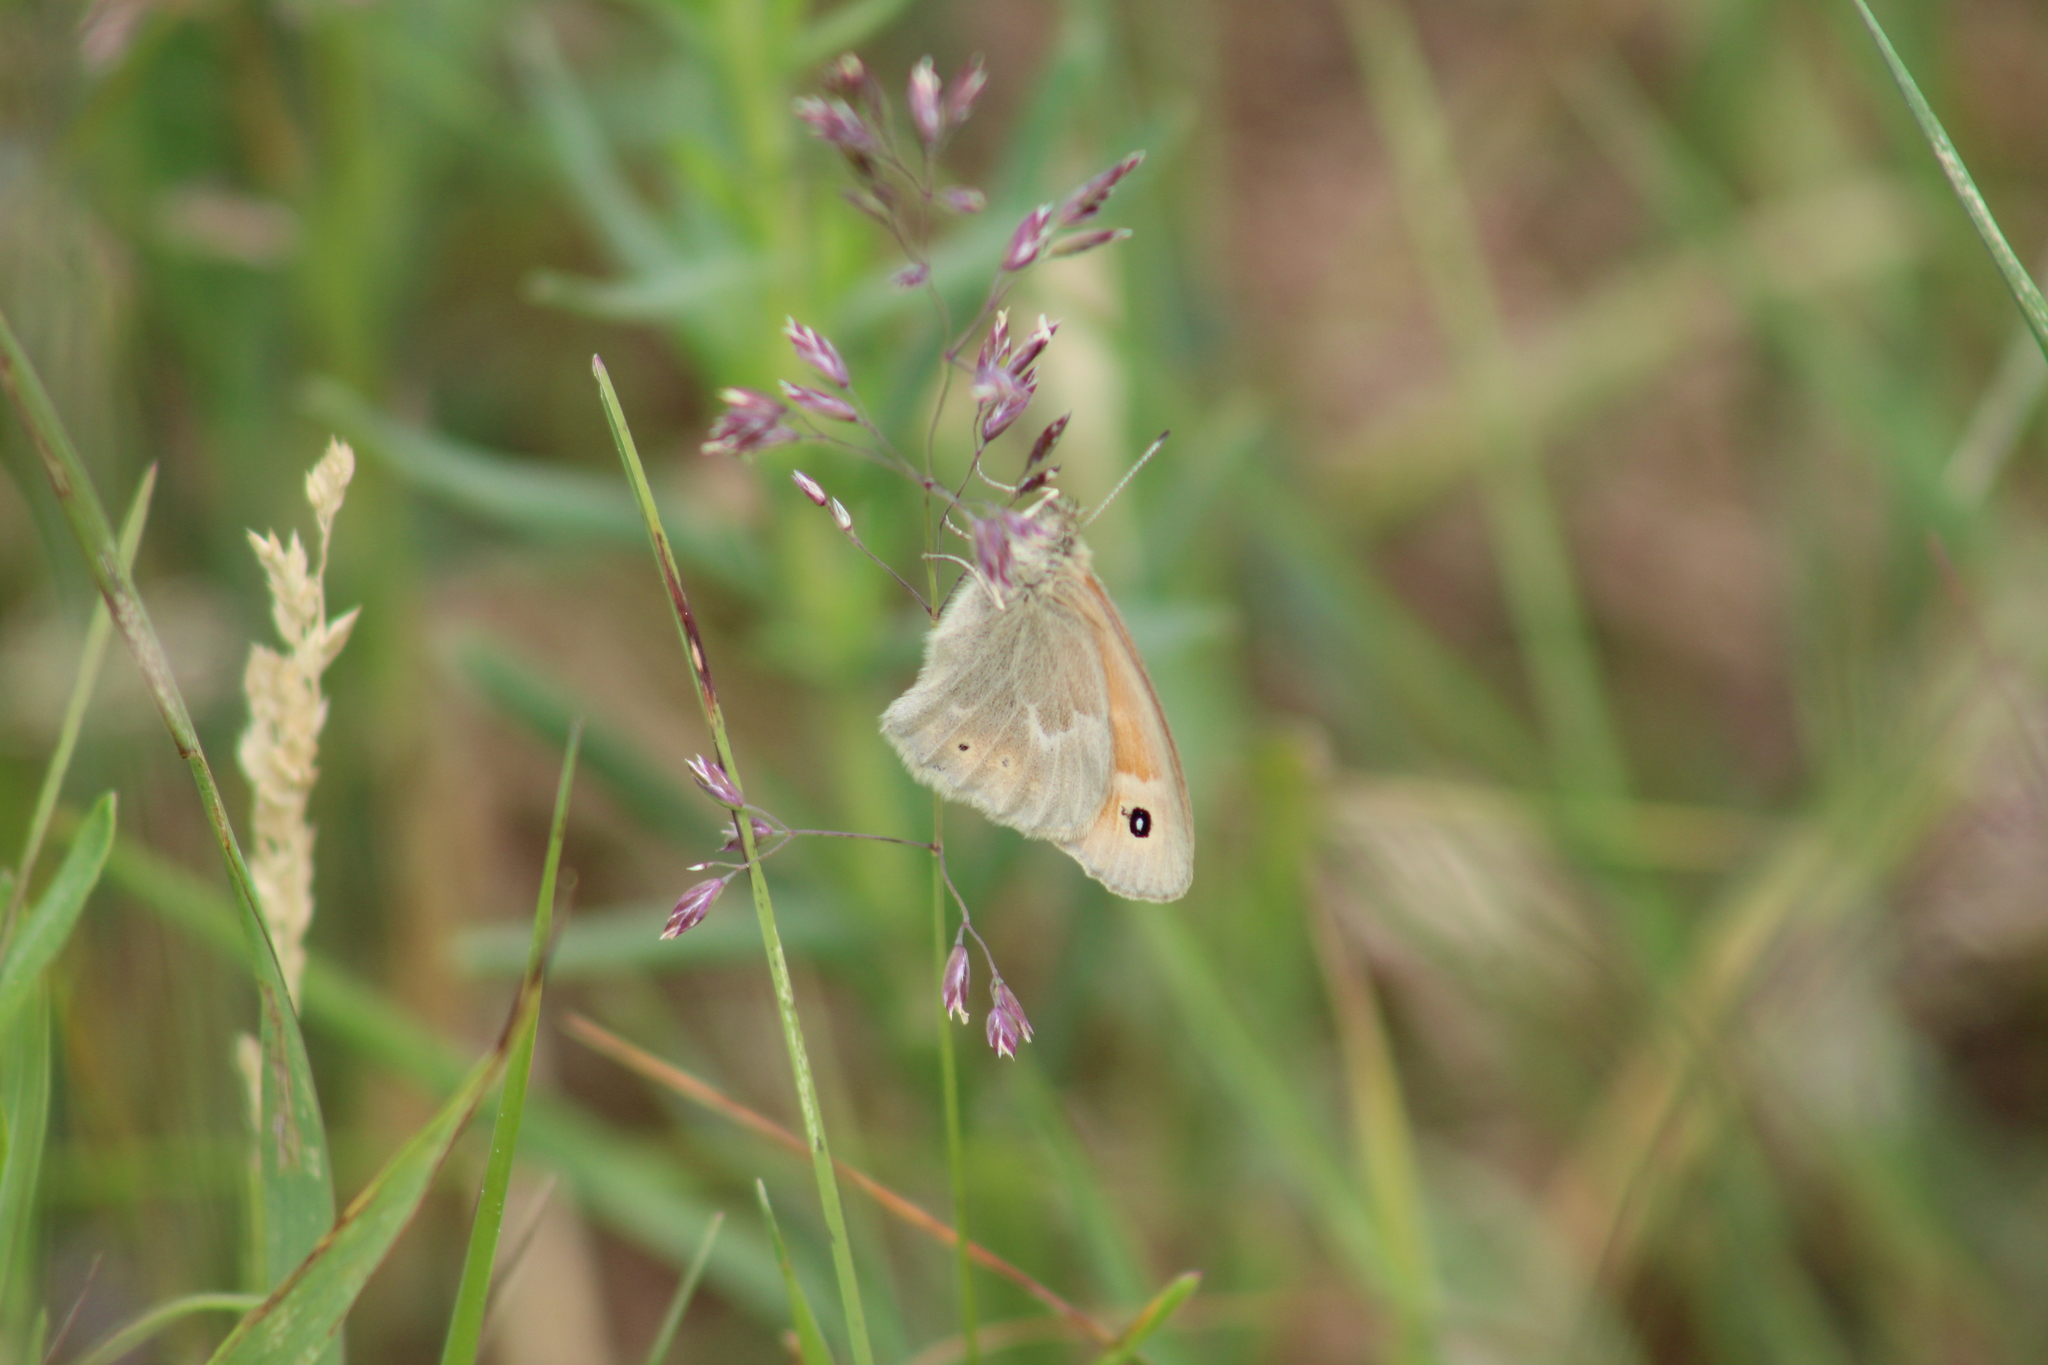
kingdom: Animalia
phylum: Arthropoda
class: Insecta
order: Lepidoptera
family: Nymphalidae
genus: Coenonympha
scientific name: Coenonympha california
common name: Common ringlet
